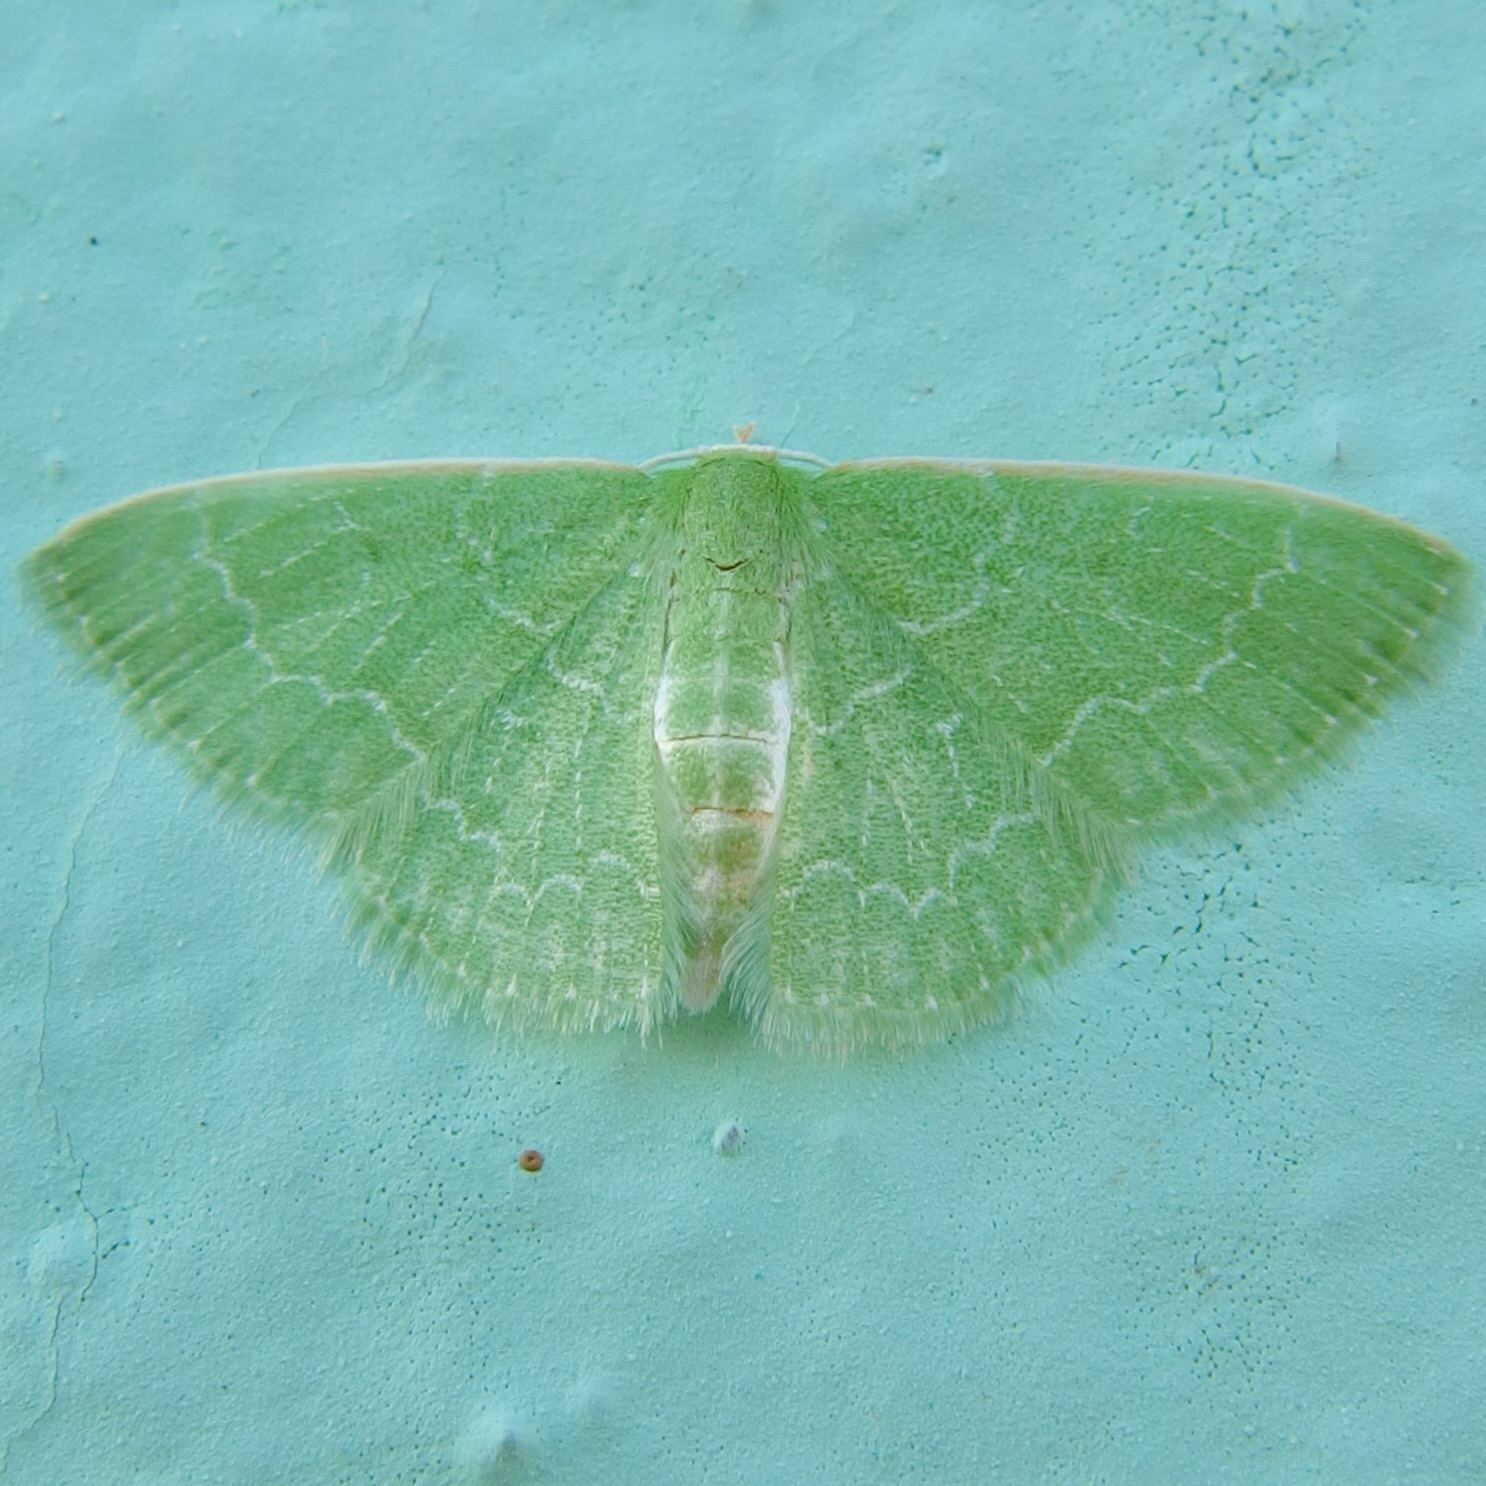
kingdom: Animalia
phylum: Arthropoda
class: Insecta
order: Lepidoptera
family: Geometridae
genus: Synchlora
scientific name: Synchlora frondaria
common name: Southern emerald
